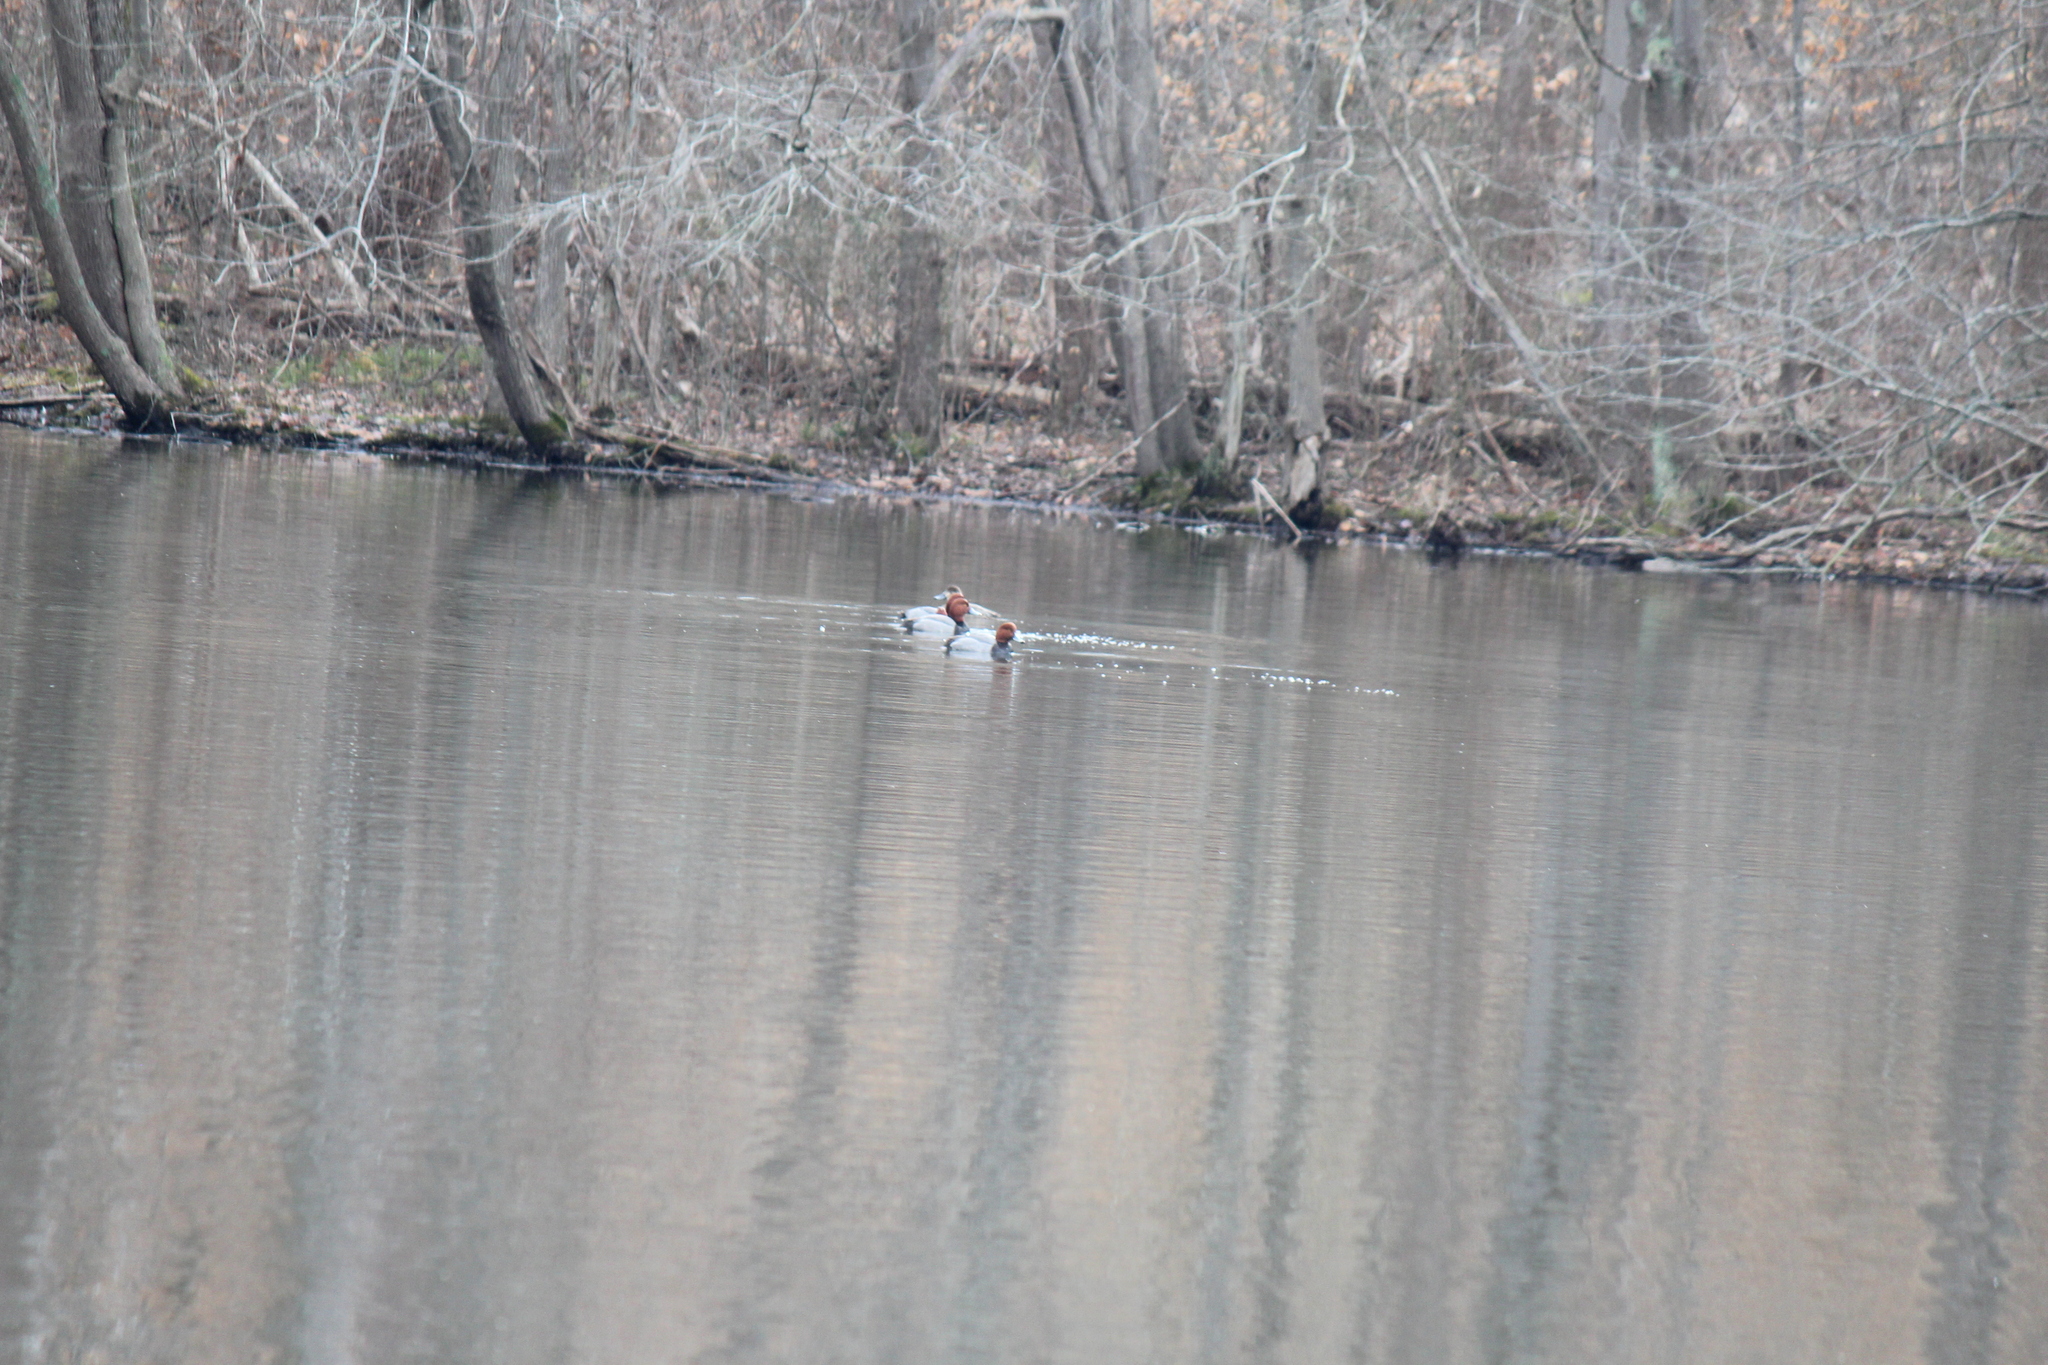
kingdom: Animalia
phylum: Chordata
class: Aves
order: Anseriformes
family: Anatidae
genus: Aythya
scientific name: Aythya americana
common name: Redhead
